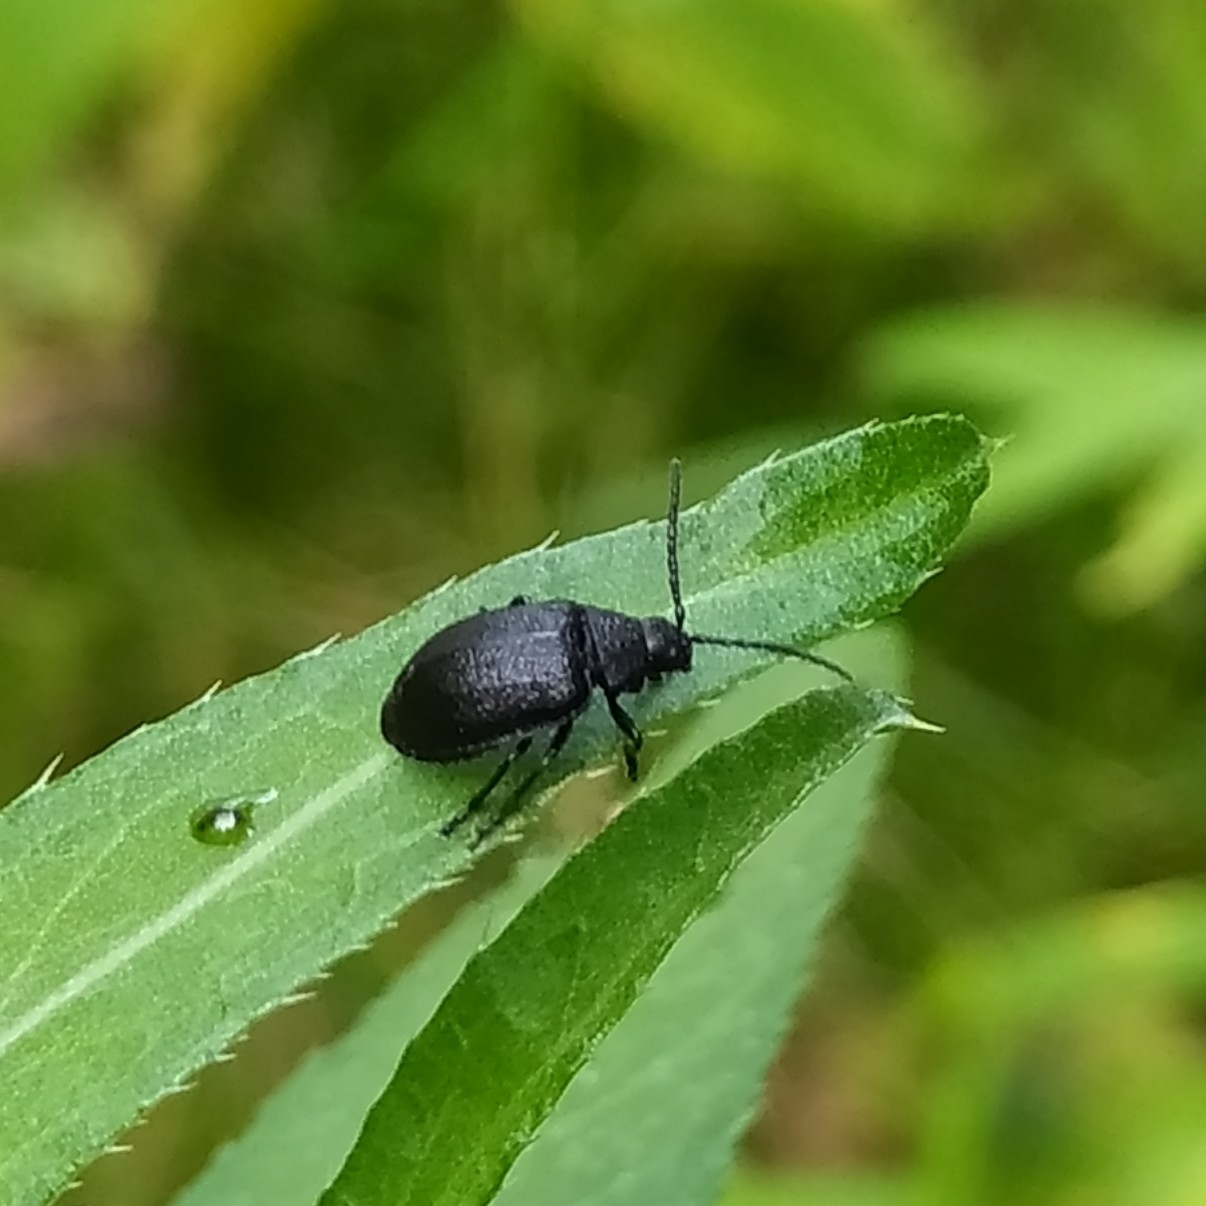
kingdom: Animalia
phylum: Arthropoda
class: Insecta
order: Coleoptera
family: Chrysomelidae
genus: Galeruca
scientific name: Galeruca tanaceti
